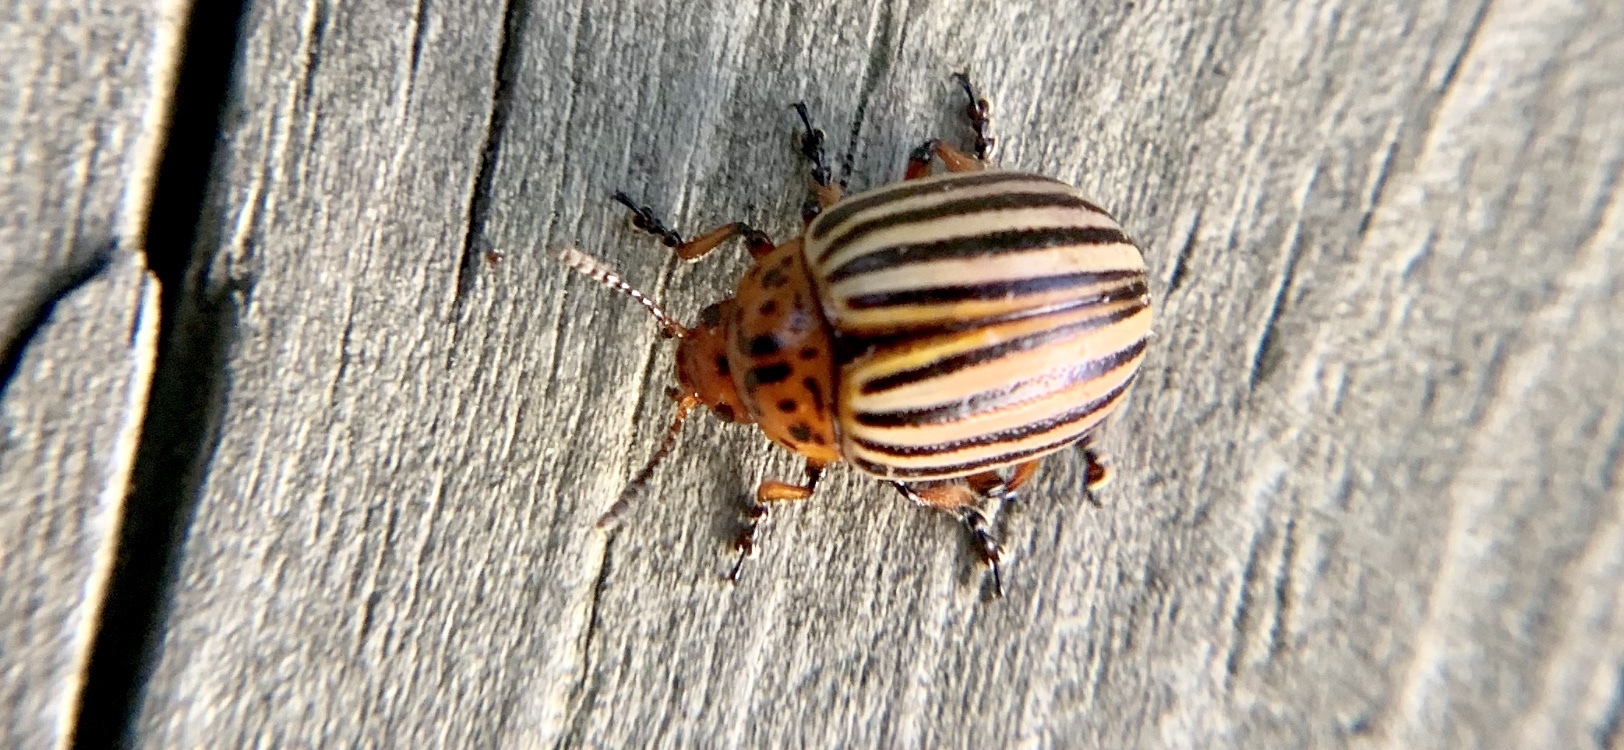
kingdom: Animalia
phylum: Arthropoda
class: Insecta
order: Coleoptera
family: Chrysomelidae
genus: Leptinotarsa
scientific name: Leptinotarsa decemlineata
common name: Colorado potato beetle
